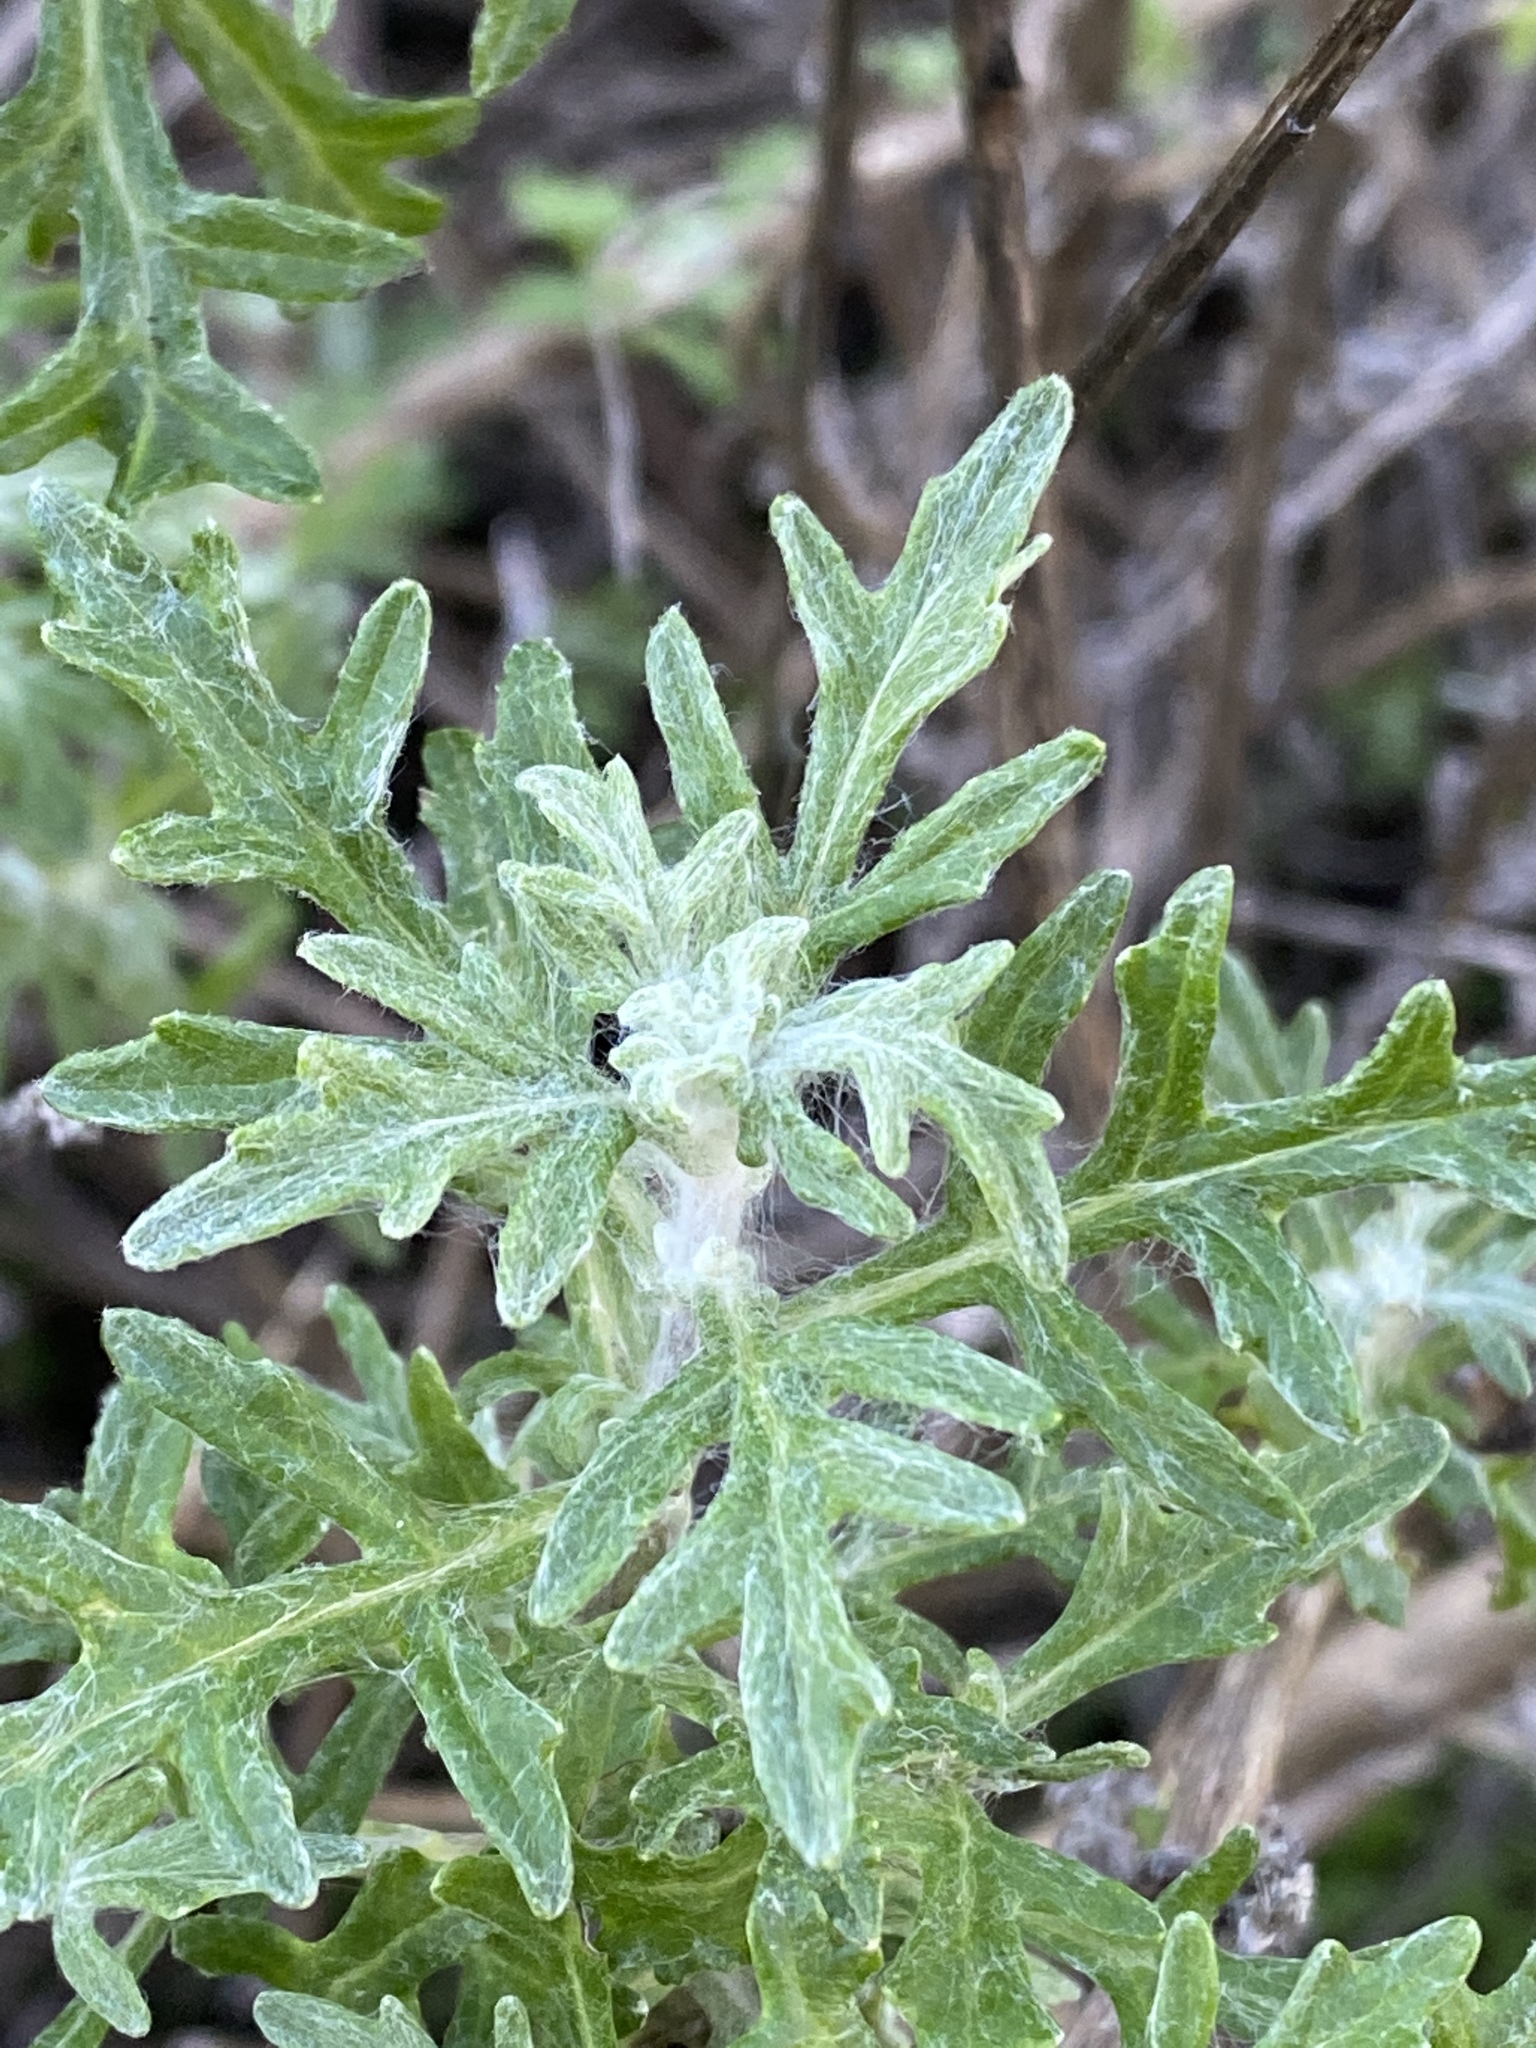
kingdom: Plantae
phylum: Tracheophyta
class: Magnoliopsida
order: Asterales
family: Asteraceae
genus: Eriophyllum
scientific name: Eriophyllum staechadifolium
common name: Lizardtail
